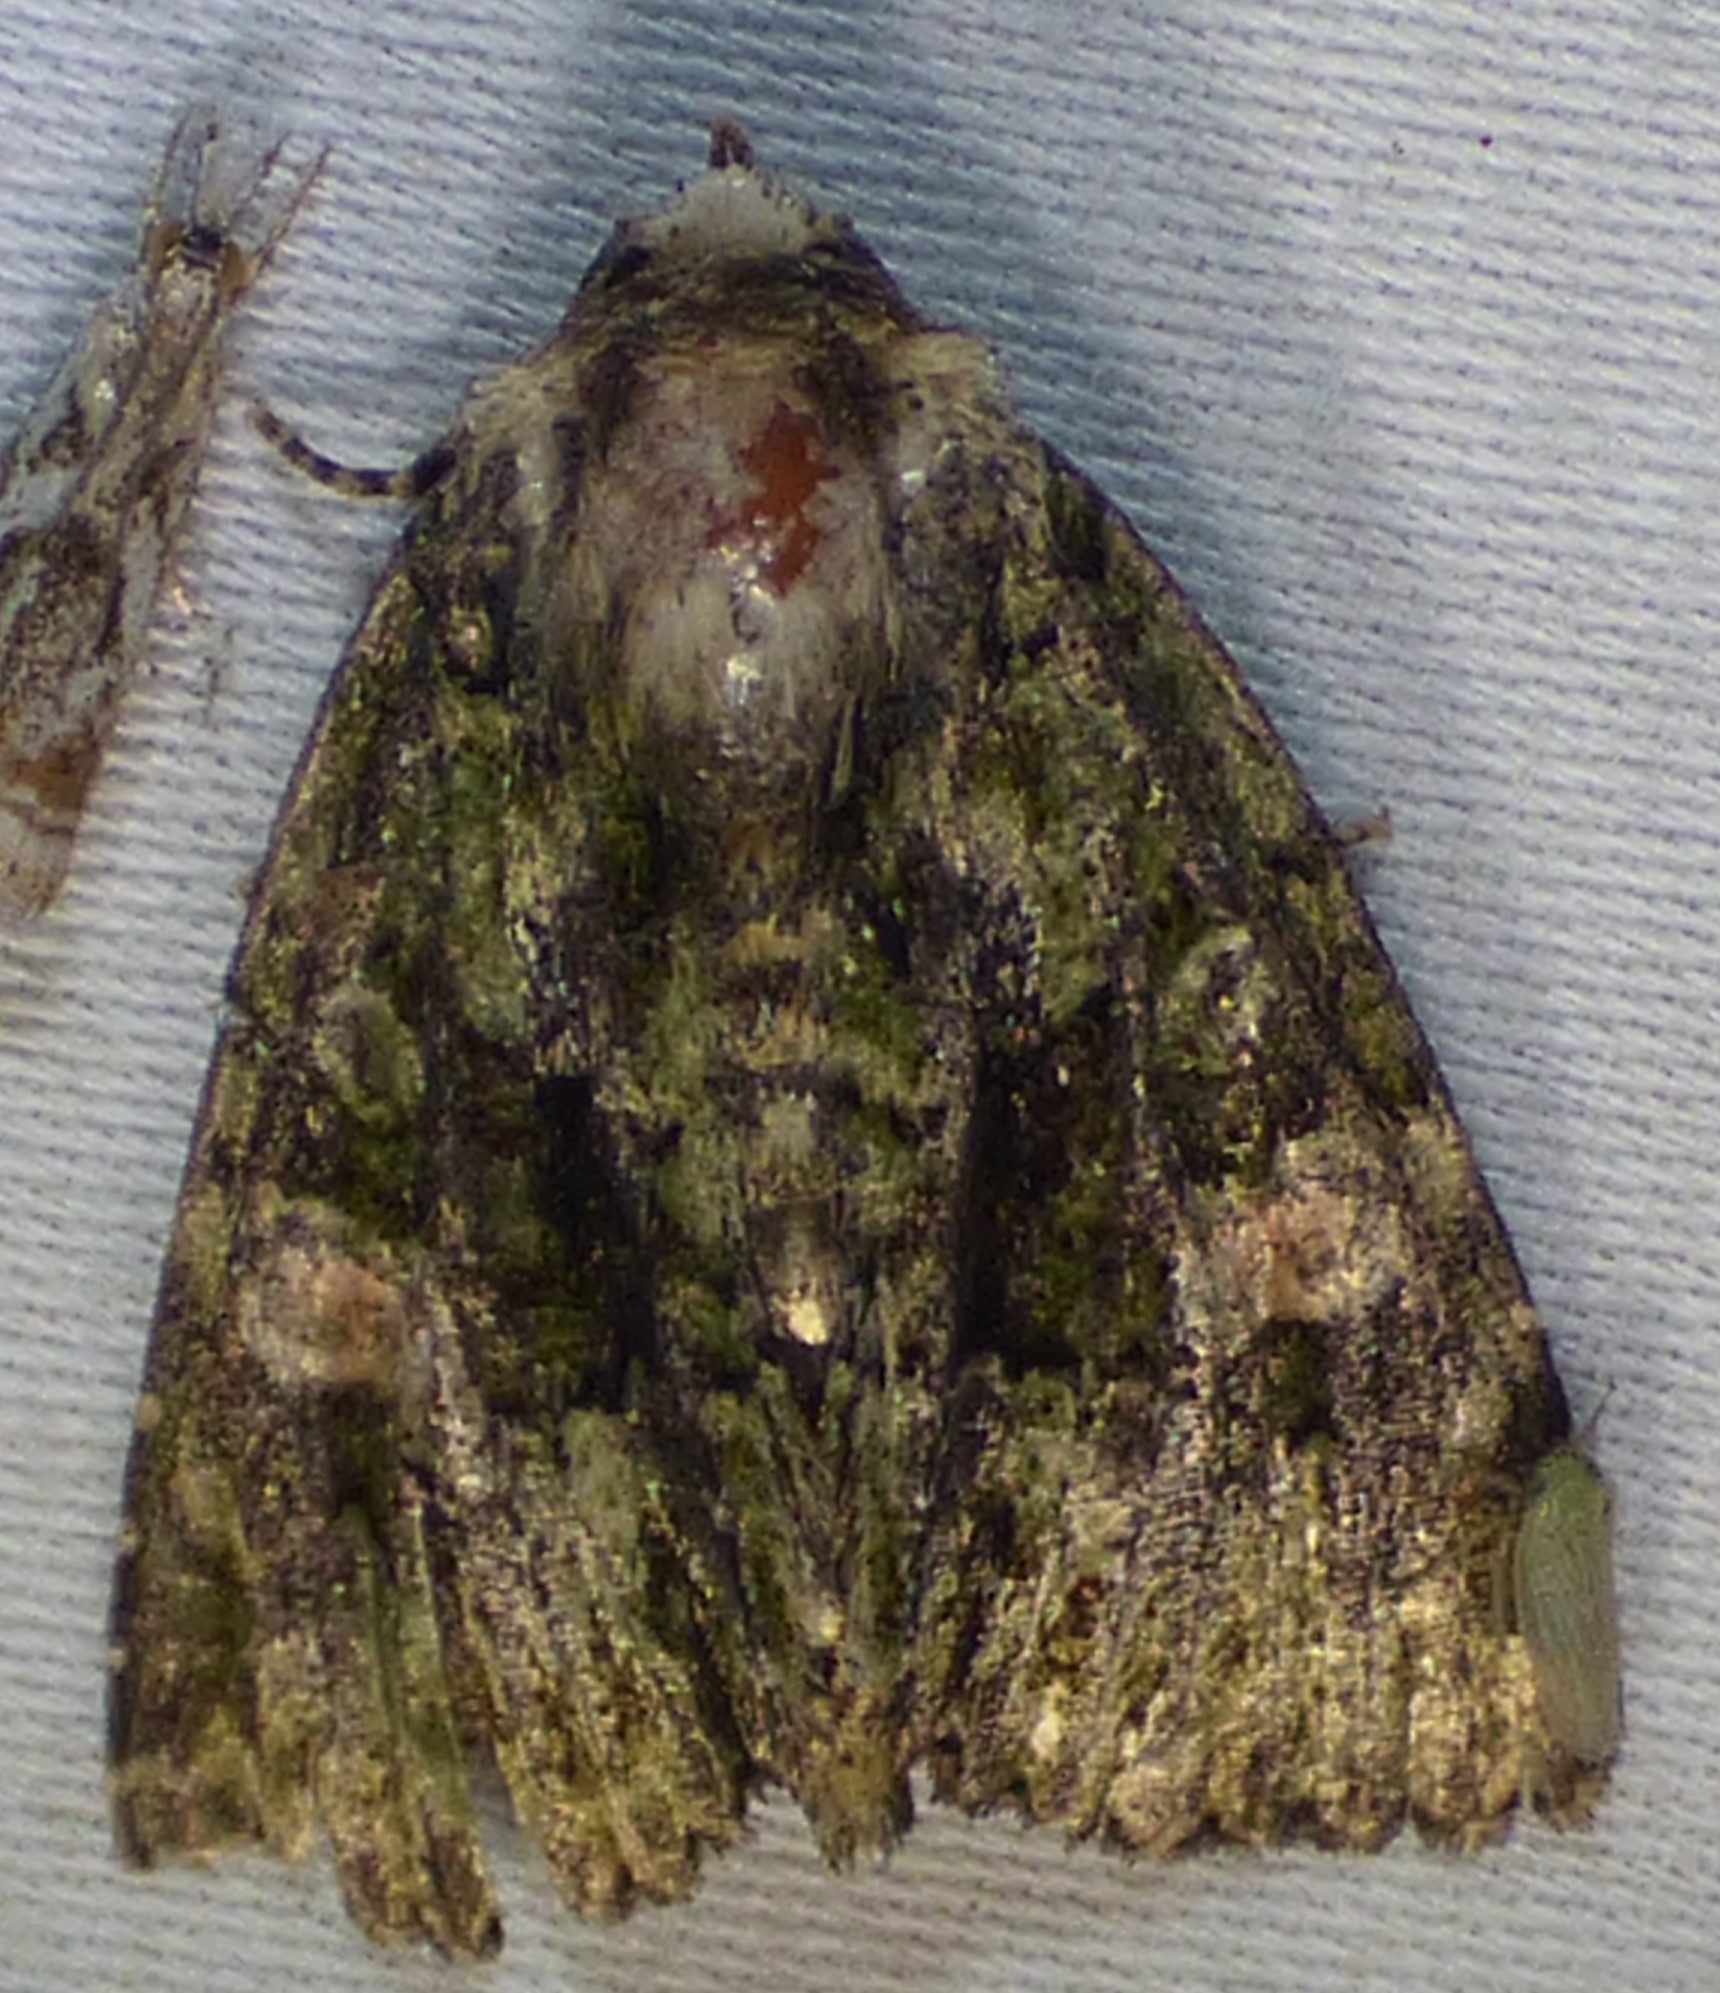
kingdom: Animalia
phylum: Arthropoda
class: Insecta
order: Lepidoptera
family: Noctuidae
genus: Phosphila
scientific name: Phosphila miselioides
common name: Spotted phosphila moth
